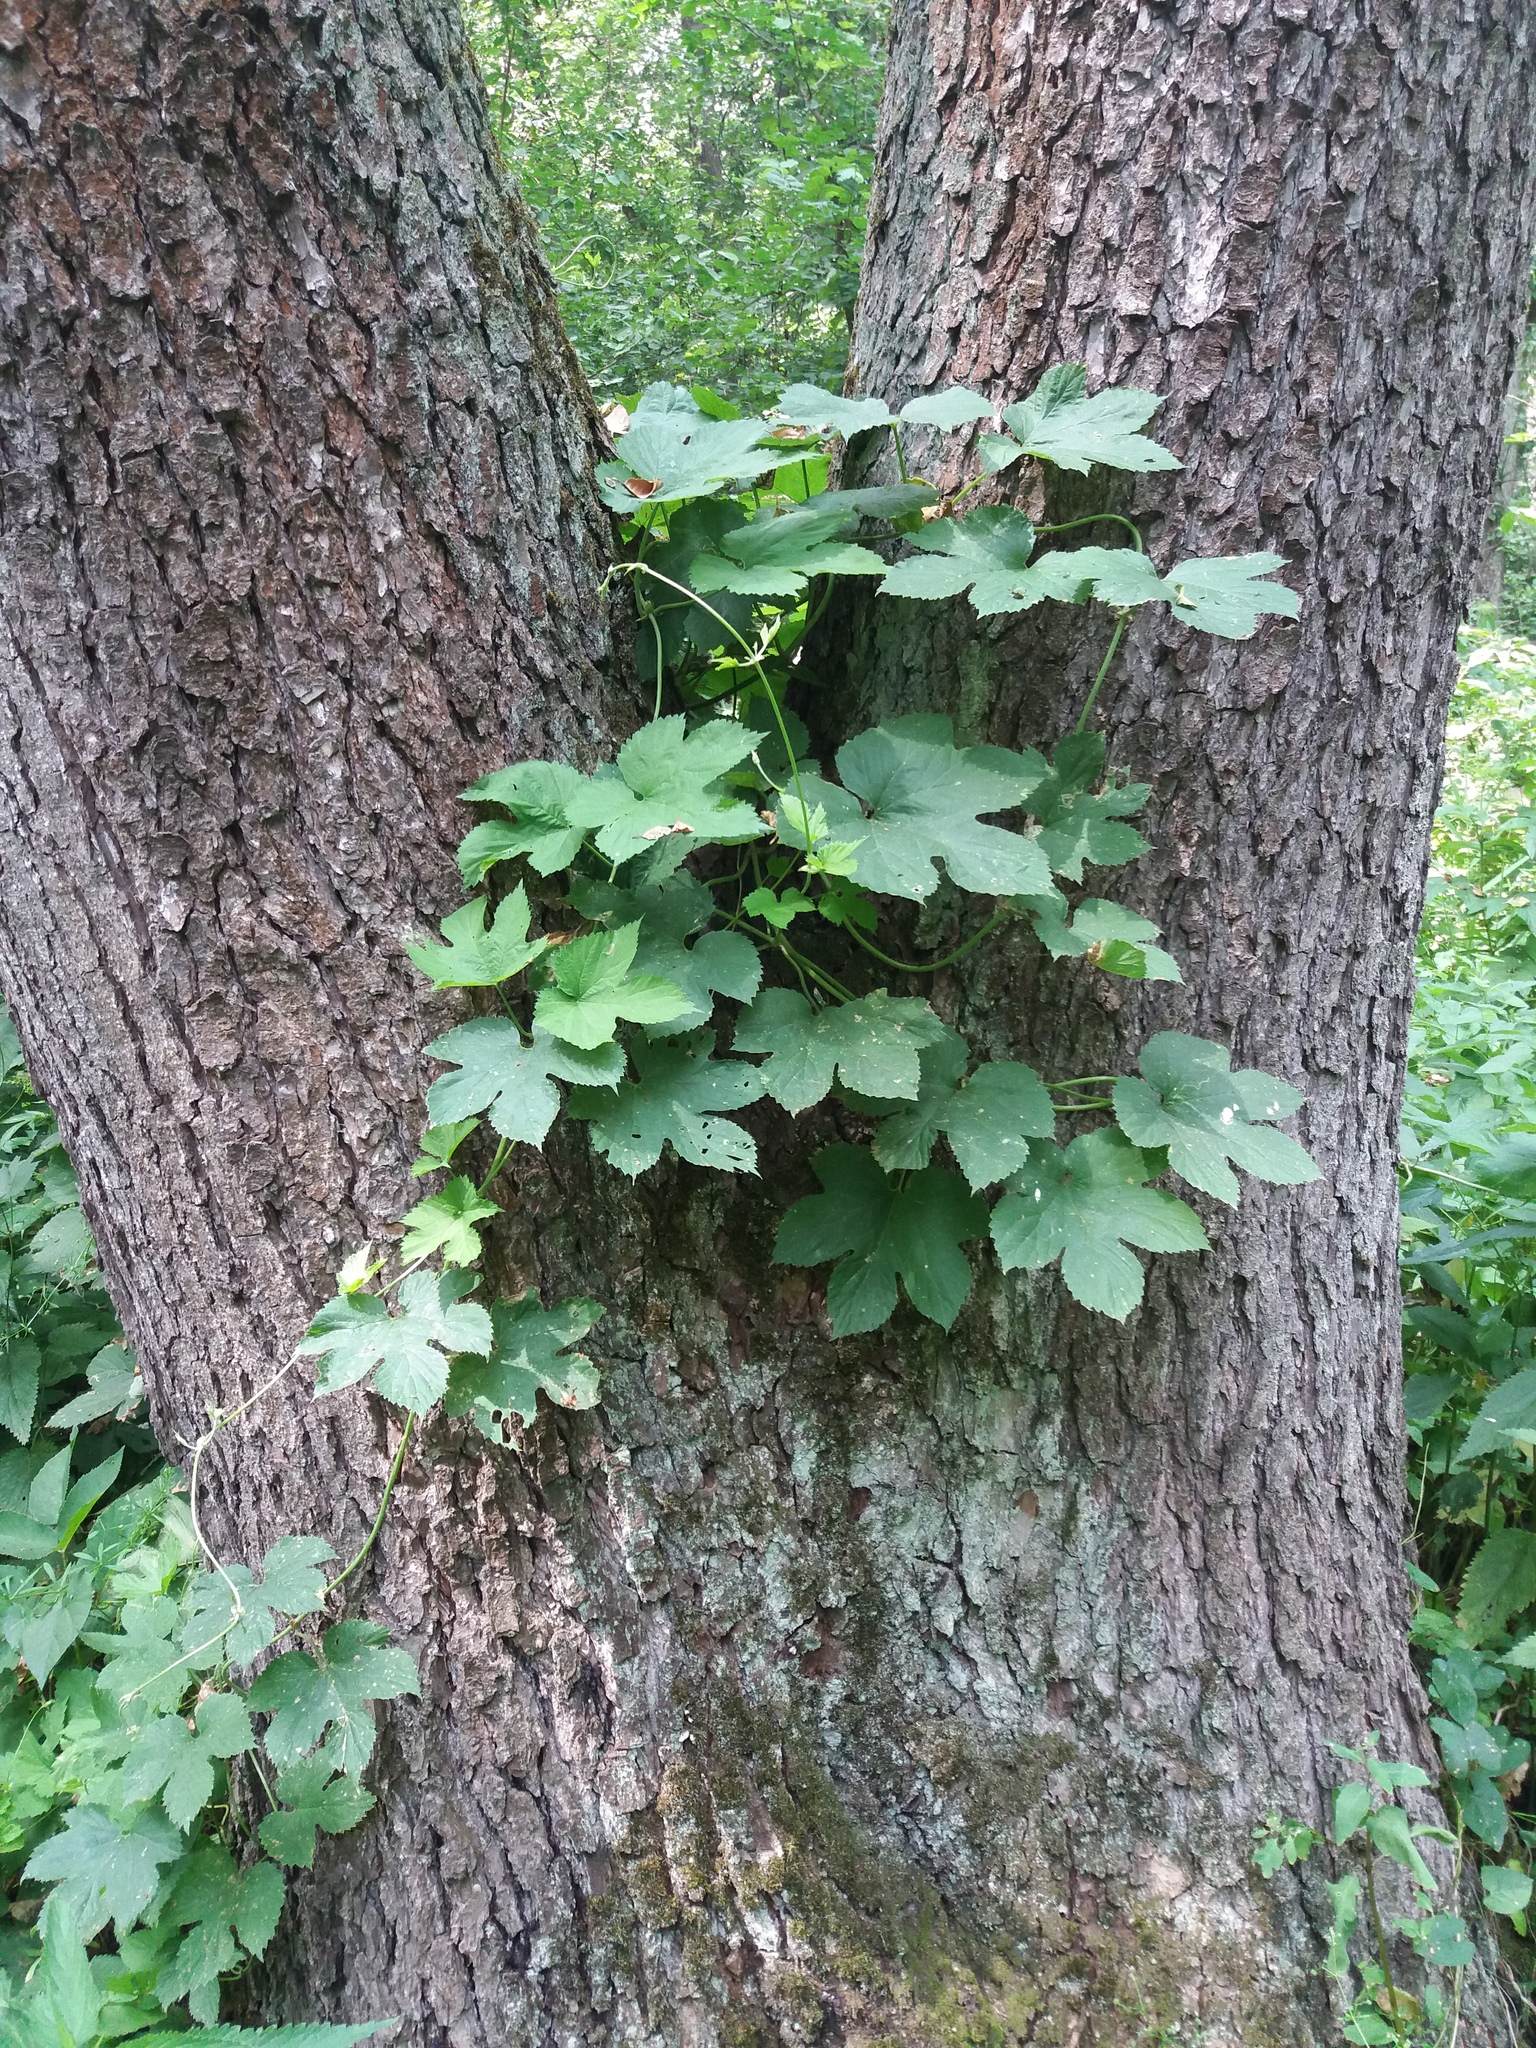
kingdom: Plantae
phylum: Tracheophyta
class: Magnoliopsida
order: Rosales
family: Cannabaceae
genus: Humulus
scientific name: Humulus lupulus
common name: Hop
